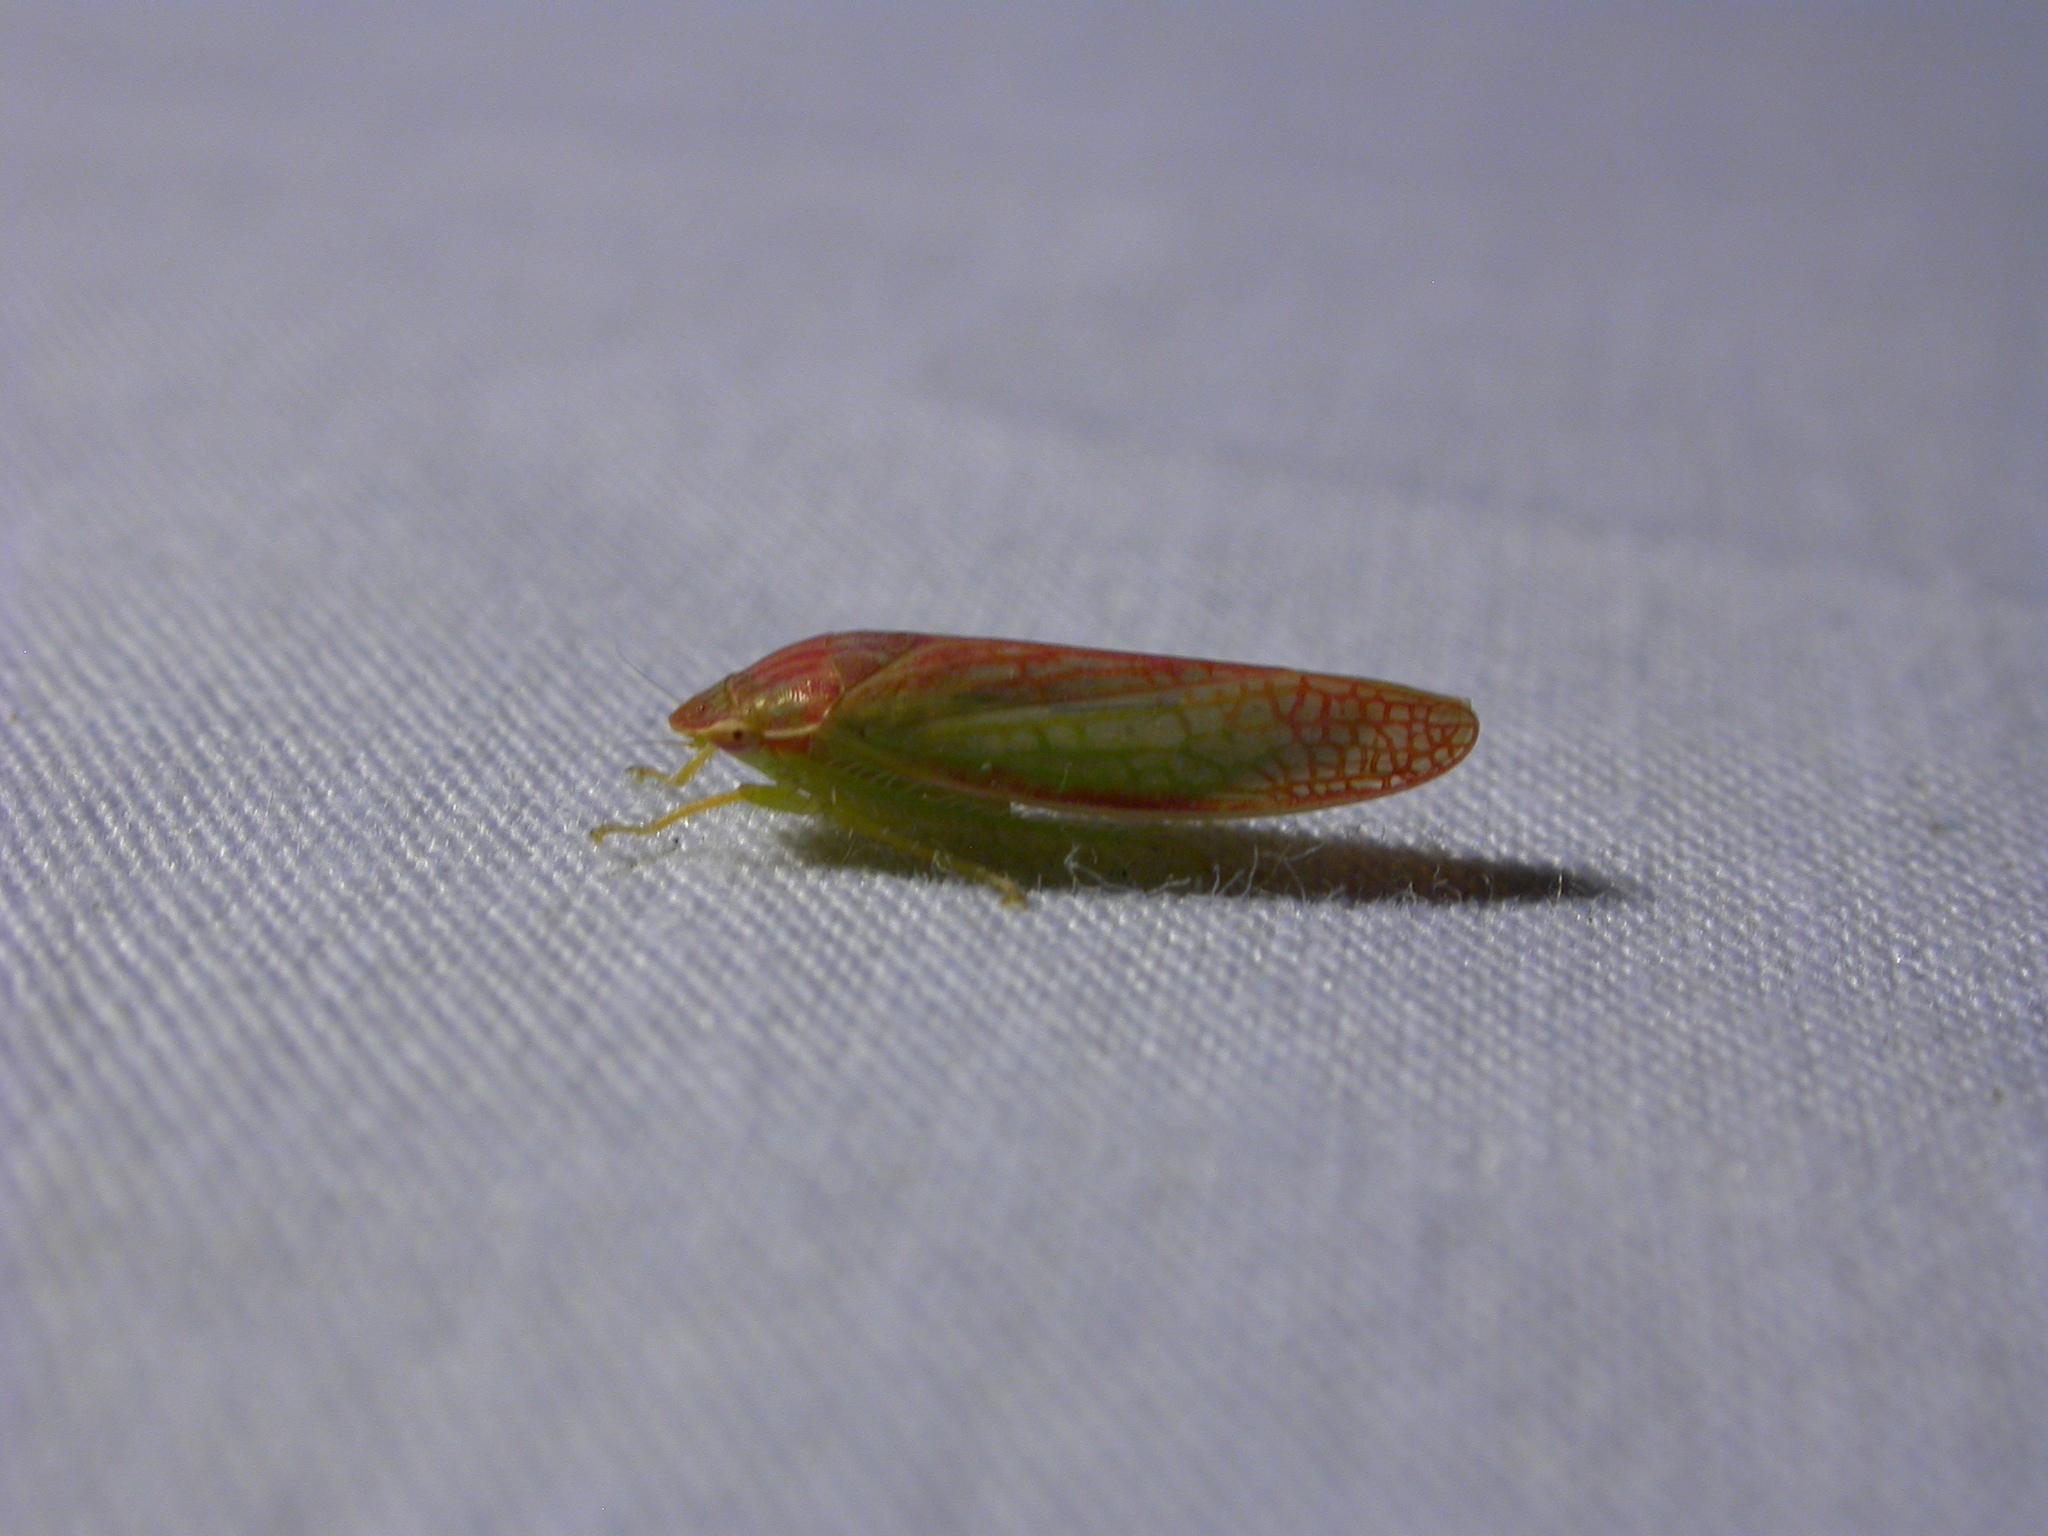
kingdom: Animalia
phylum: Arthropoda
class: Insecta
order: Hemiptera
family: Cicadellidae
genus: Gyponana
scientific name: Gyponana octolineata
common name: Eight-lined leafhopper
